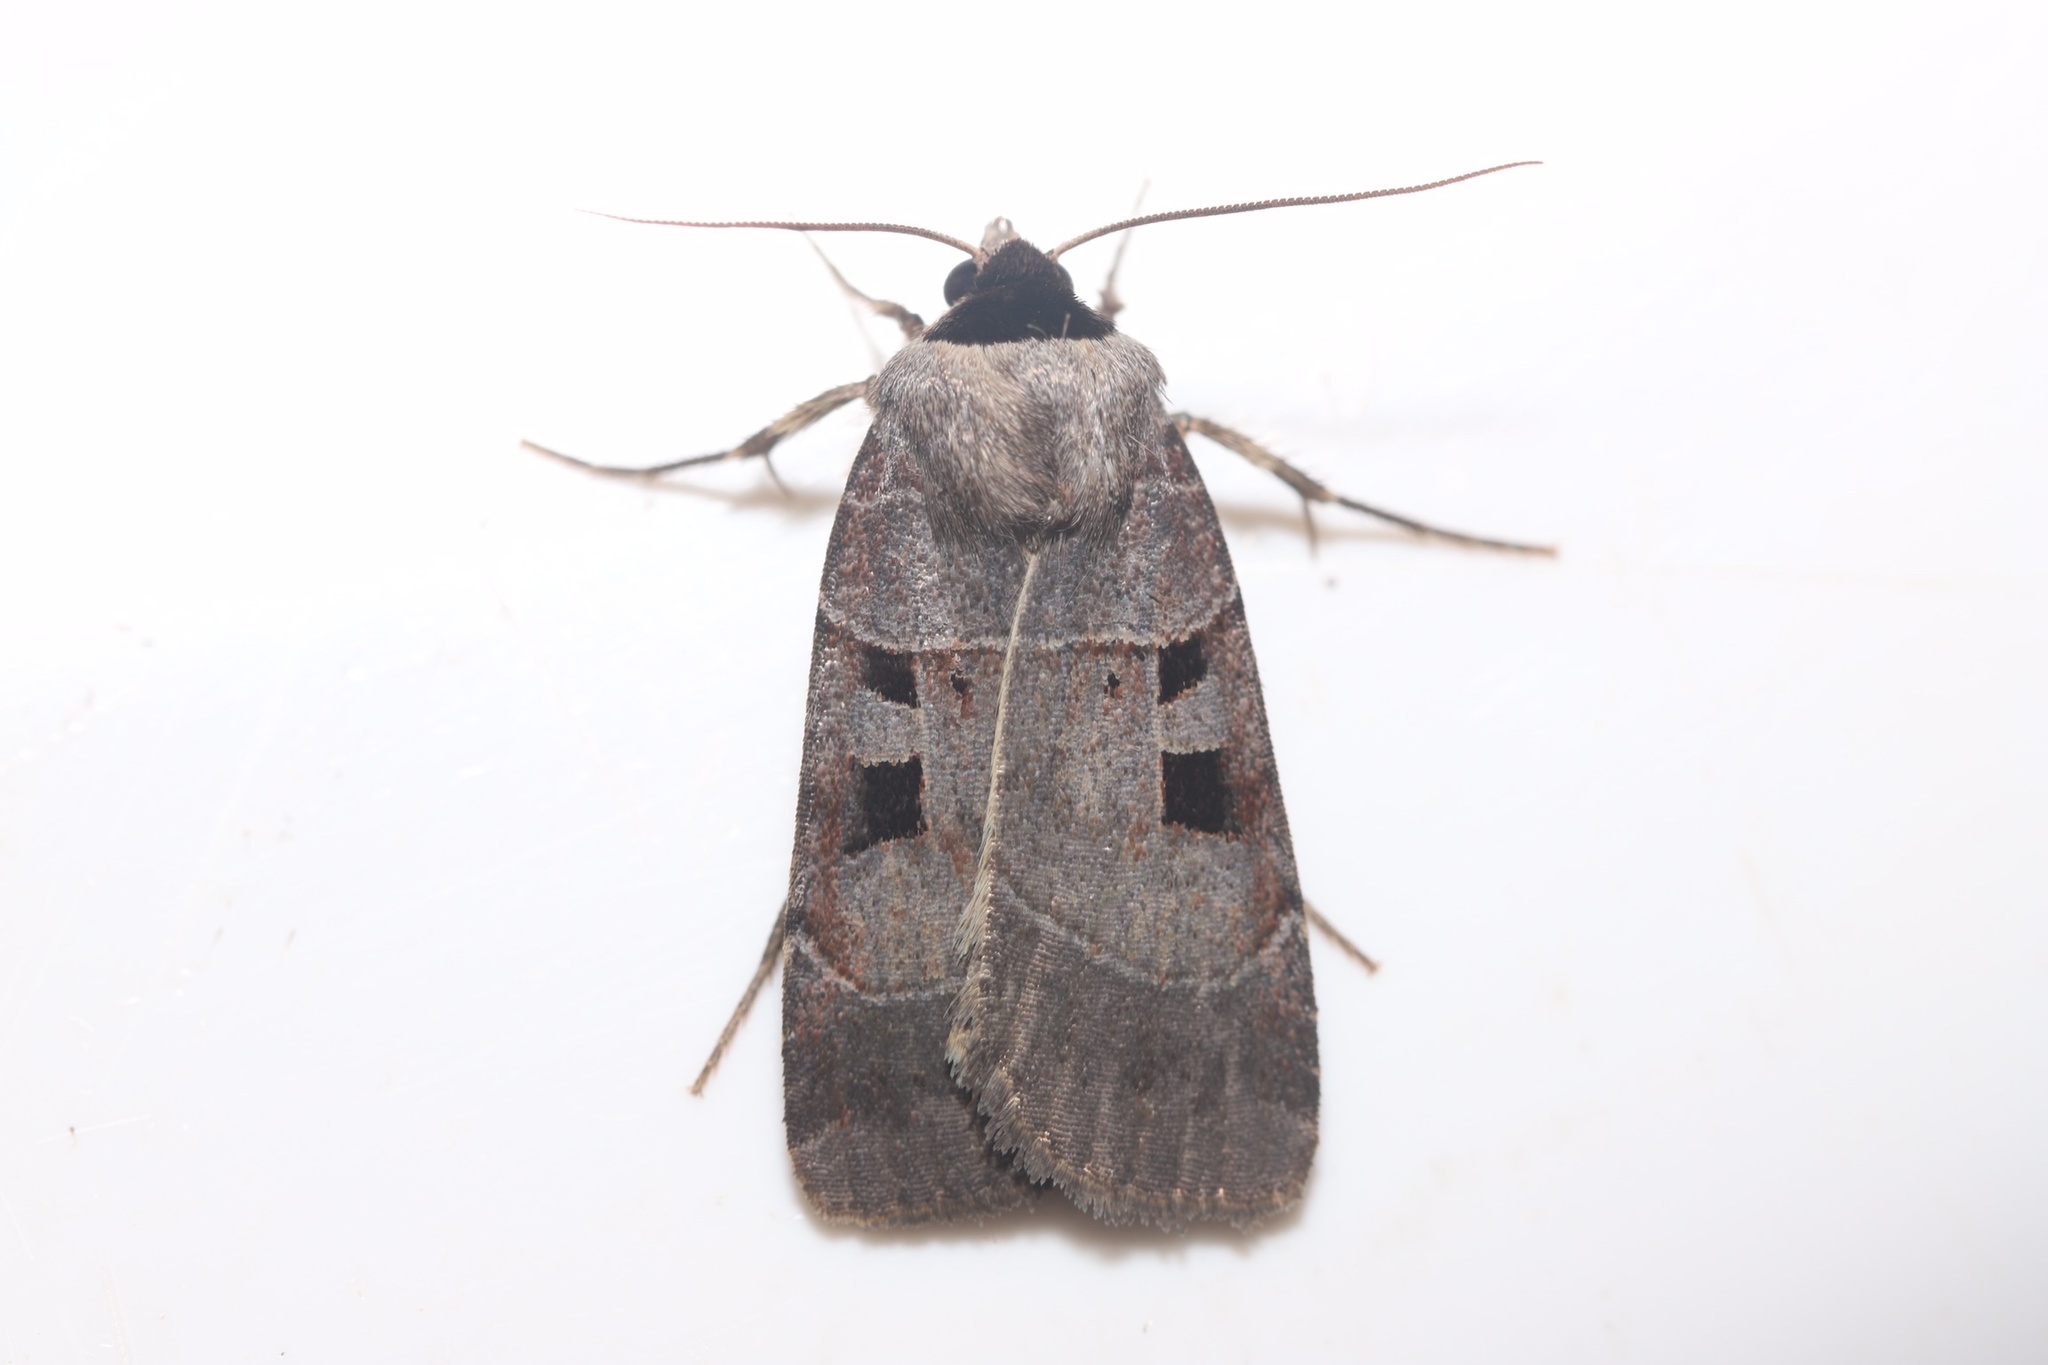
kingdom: Animalia
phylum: Arthropoda
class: Insecta
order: Lepidoptera
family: Noctuidae
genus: Agnorisma
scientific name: Agnorisma bugrai
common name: Collared dart
